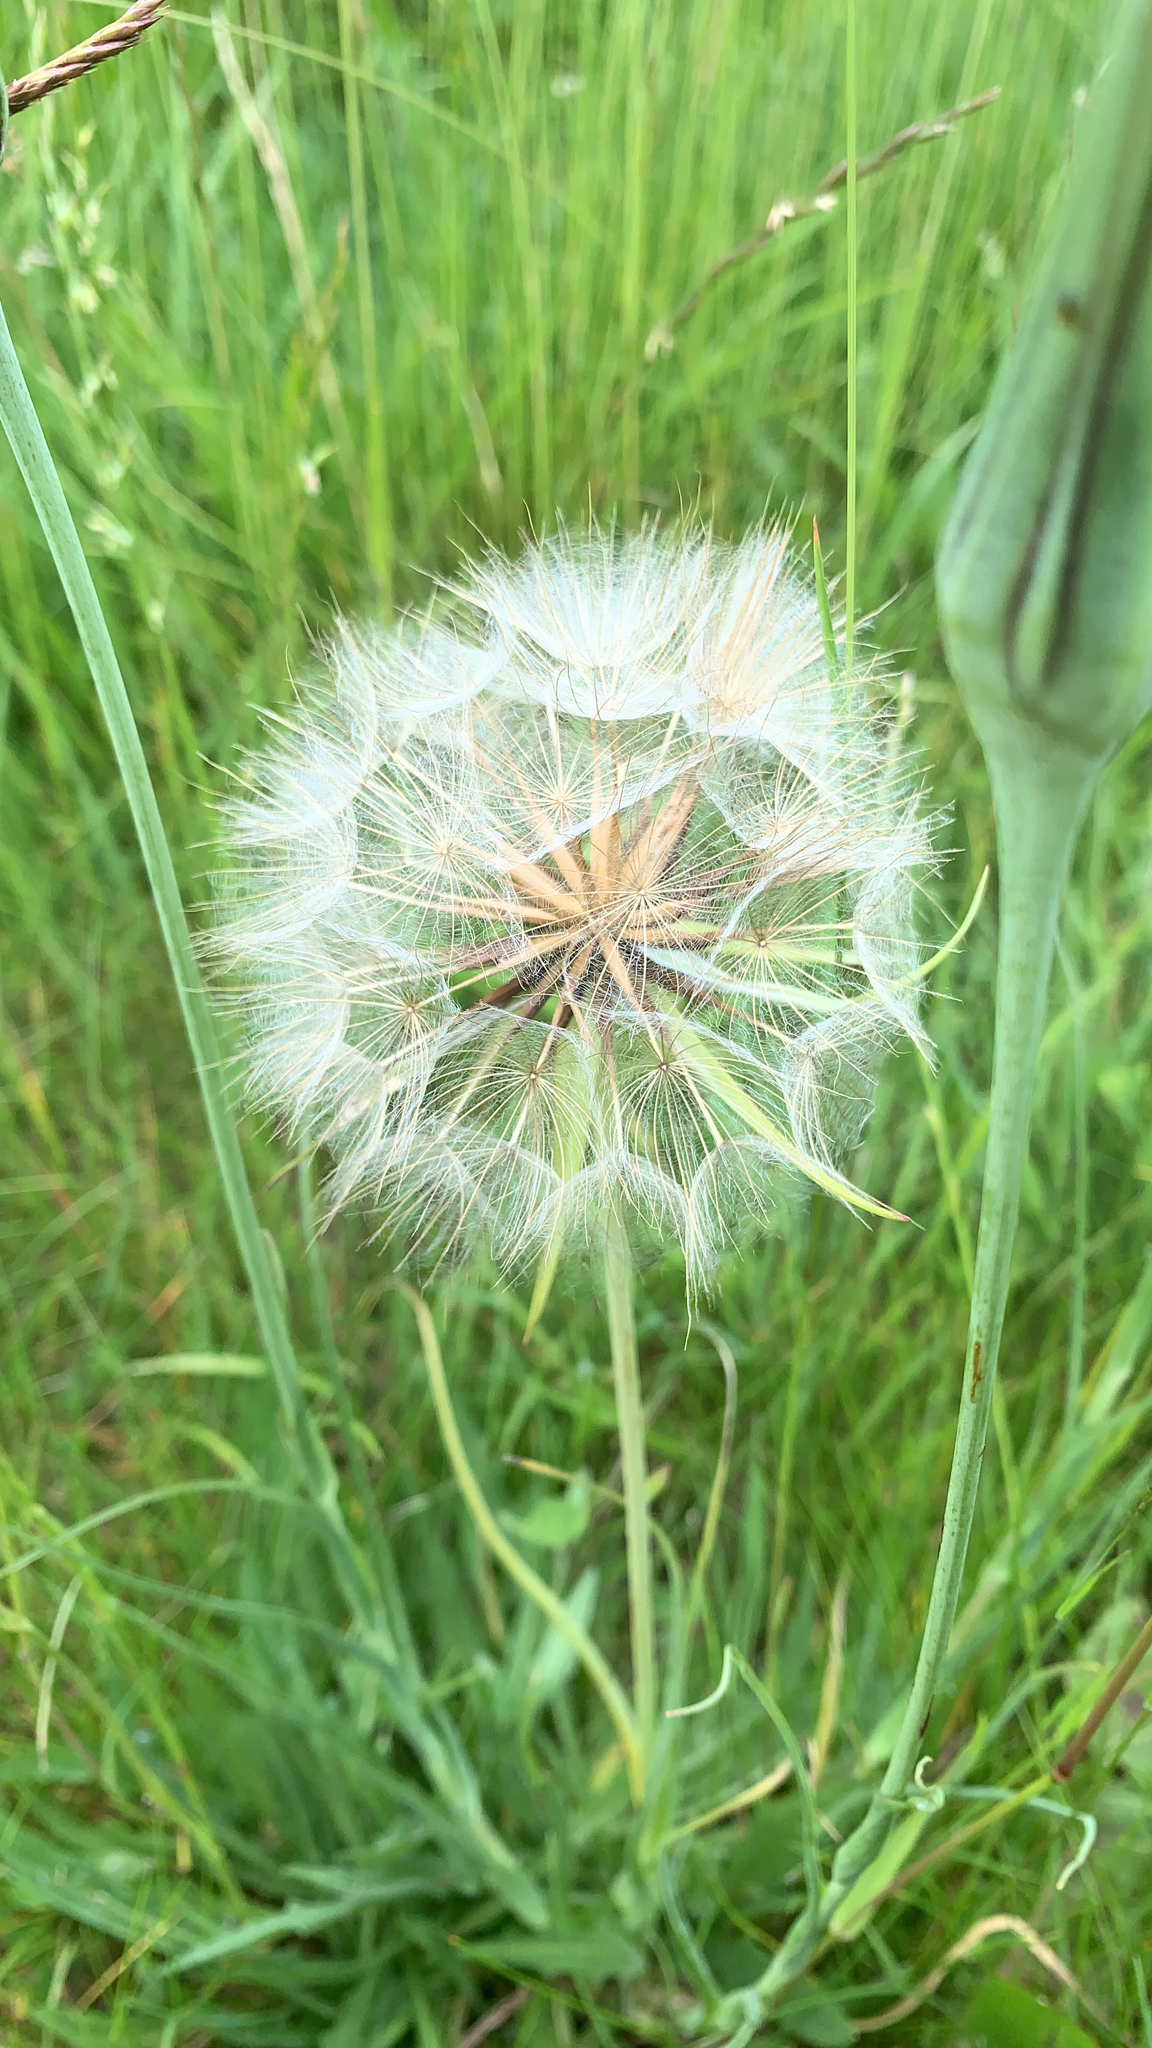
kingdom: Plantae
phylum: Tracheophyta
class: Magnoliopsida
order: Asterales
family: Asteraceae
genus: Tragopogon
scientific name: Tragopogon pratensis
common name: Goat's-beard
